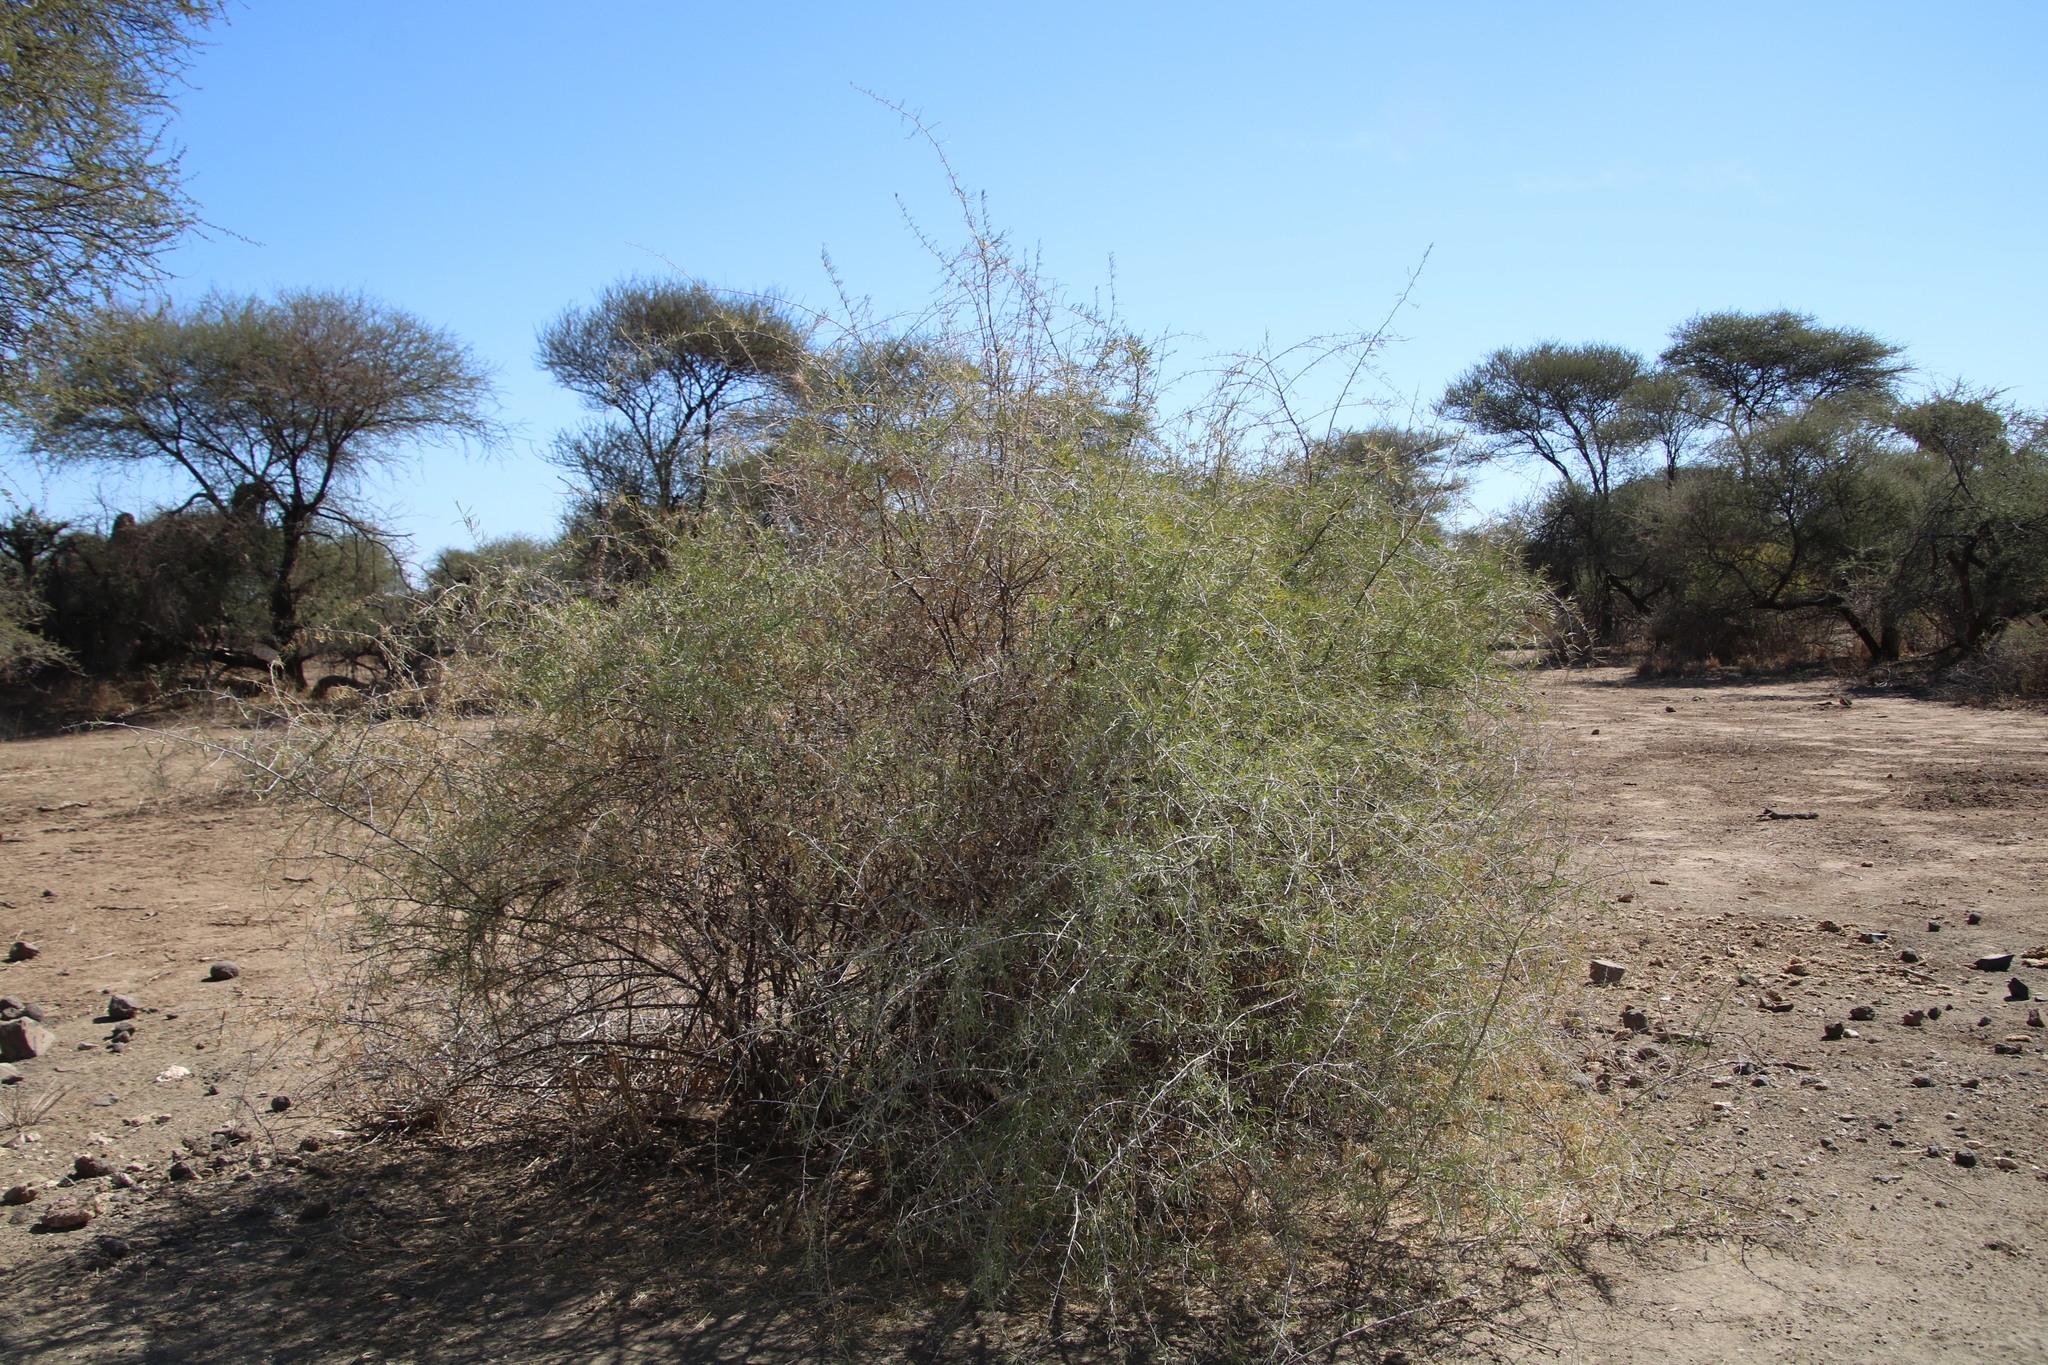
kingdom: Plantae
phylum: Tracheophyta
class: Magnoliopsida
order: Caryophyllales
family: Nyctaginaceae
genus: Phaeoptilum
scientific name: Phaeoptilum spinosum
